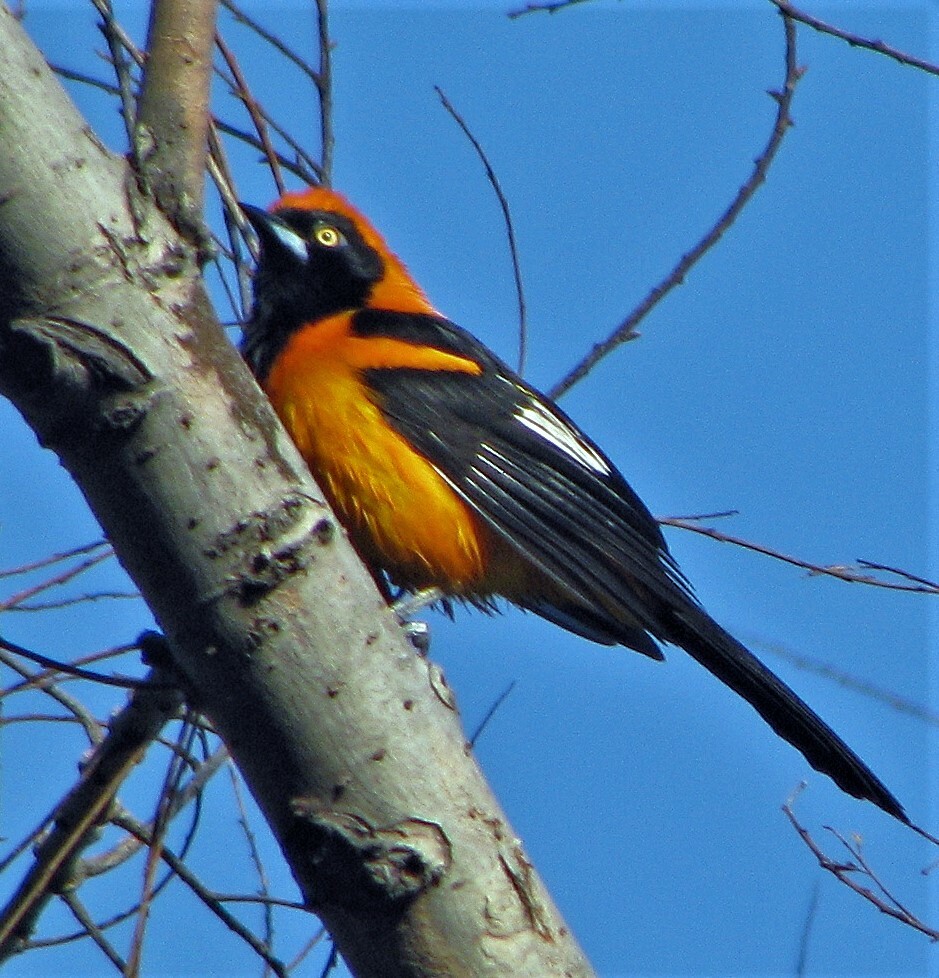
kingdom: Animalia
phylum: Chordata
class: Aves
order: Passeriformes
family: Icteridae
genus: Icterus
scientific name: Icterus icterus
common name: Venezuelan troupial
